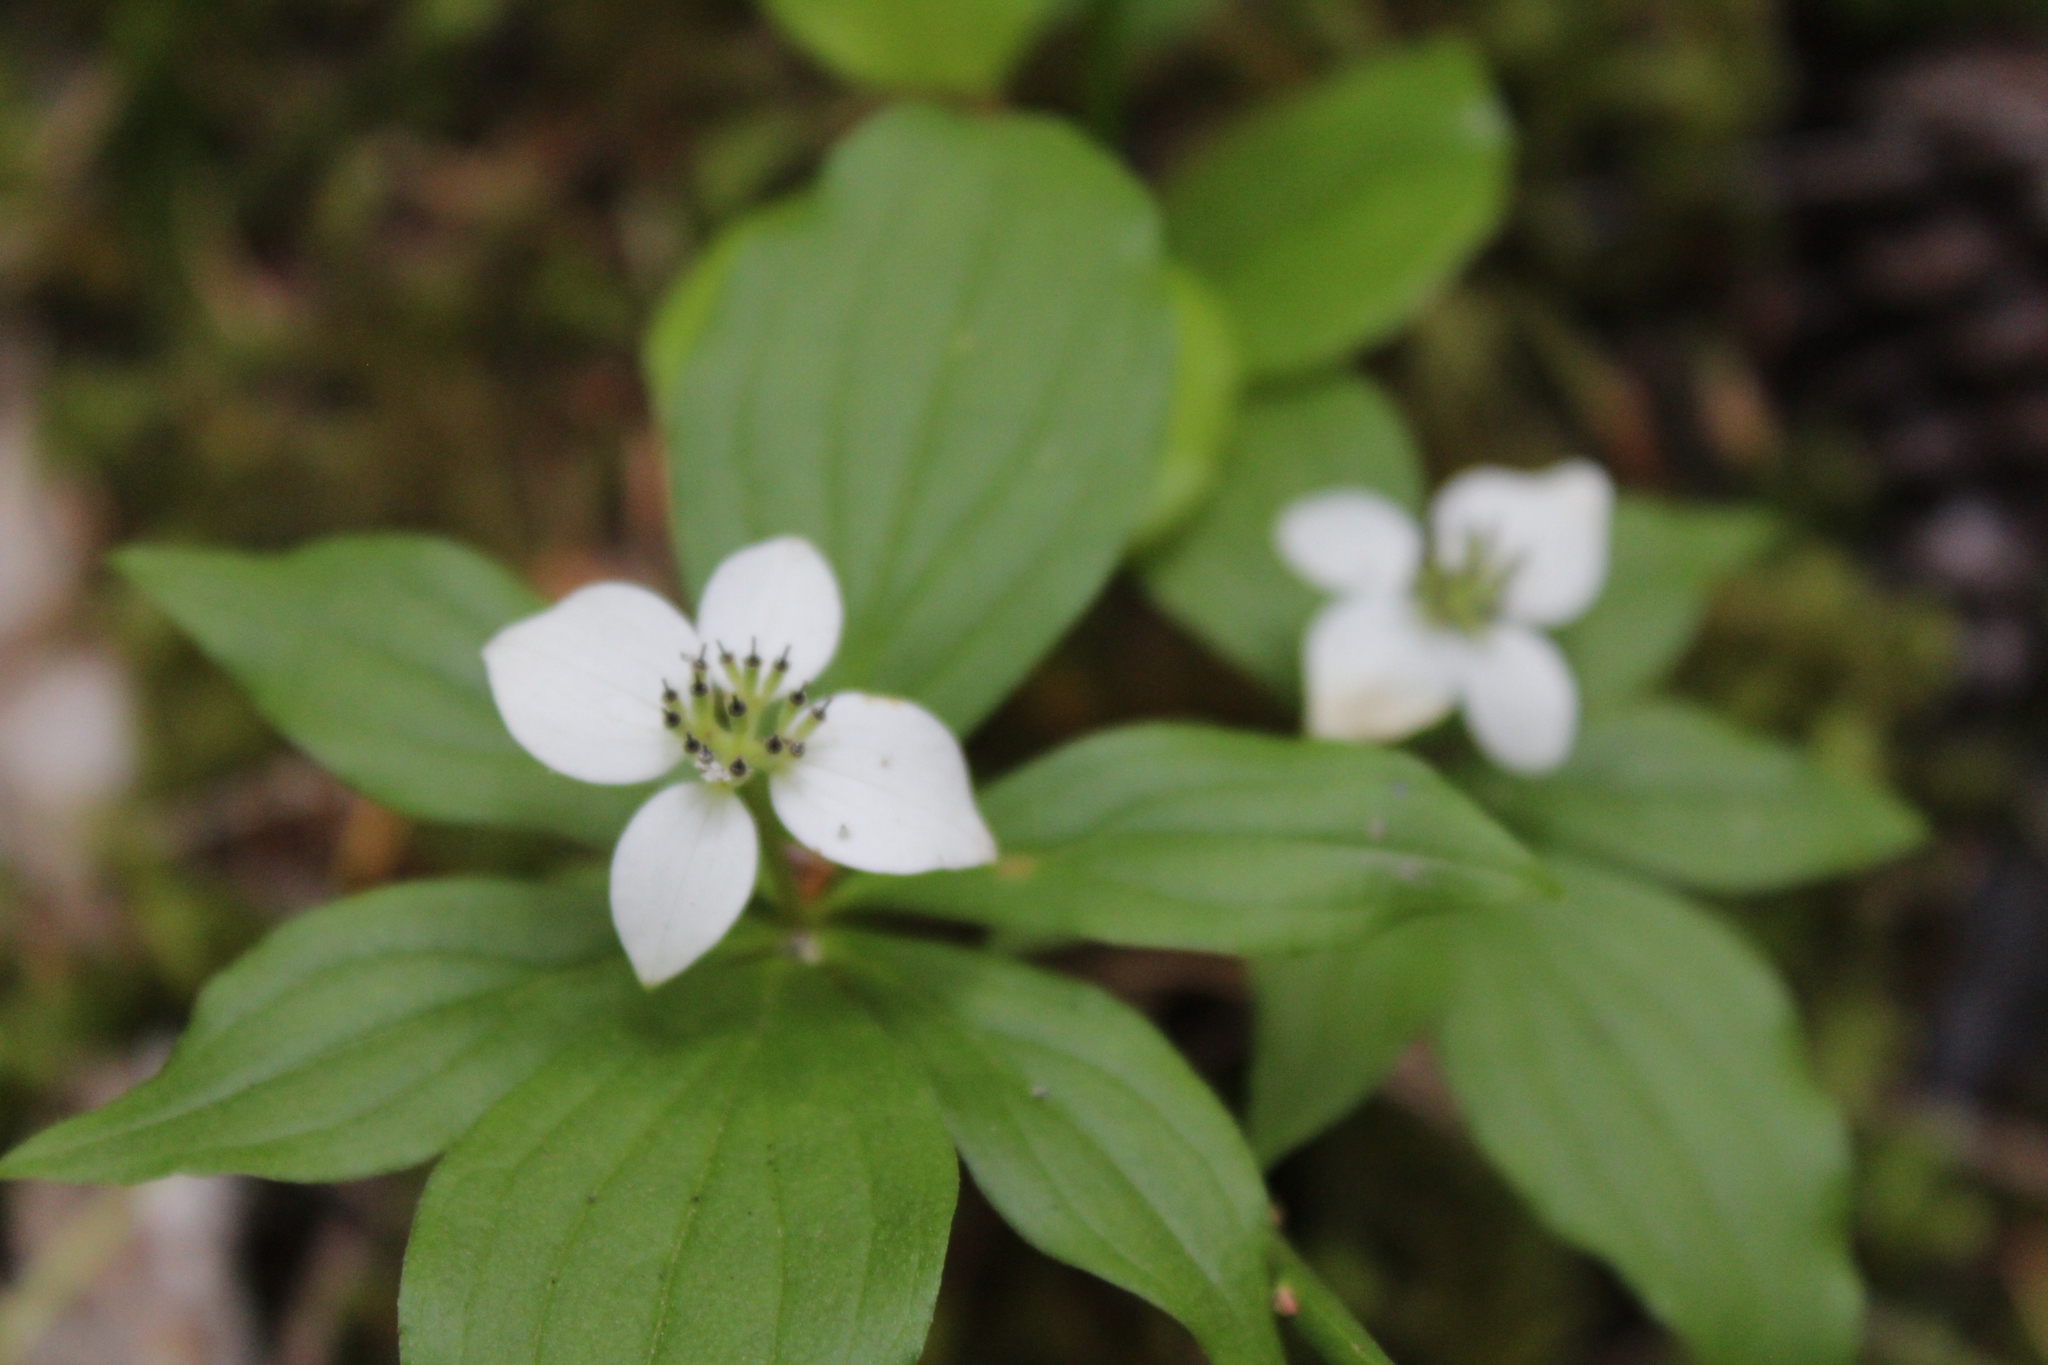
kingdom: Plantae
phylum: Tracheophyta
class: Magnoliopsida
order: Cornales
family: Cornaceae
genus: Cornus
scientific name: Cornus unalaschkensis
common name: Alaska bunchberry
